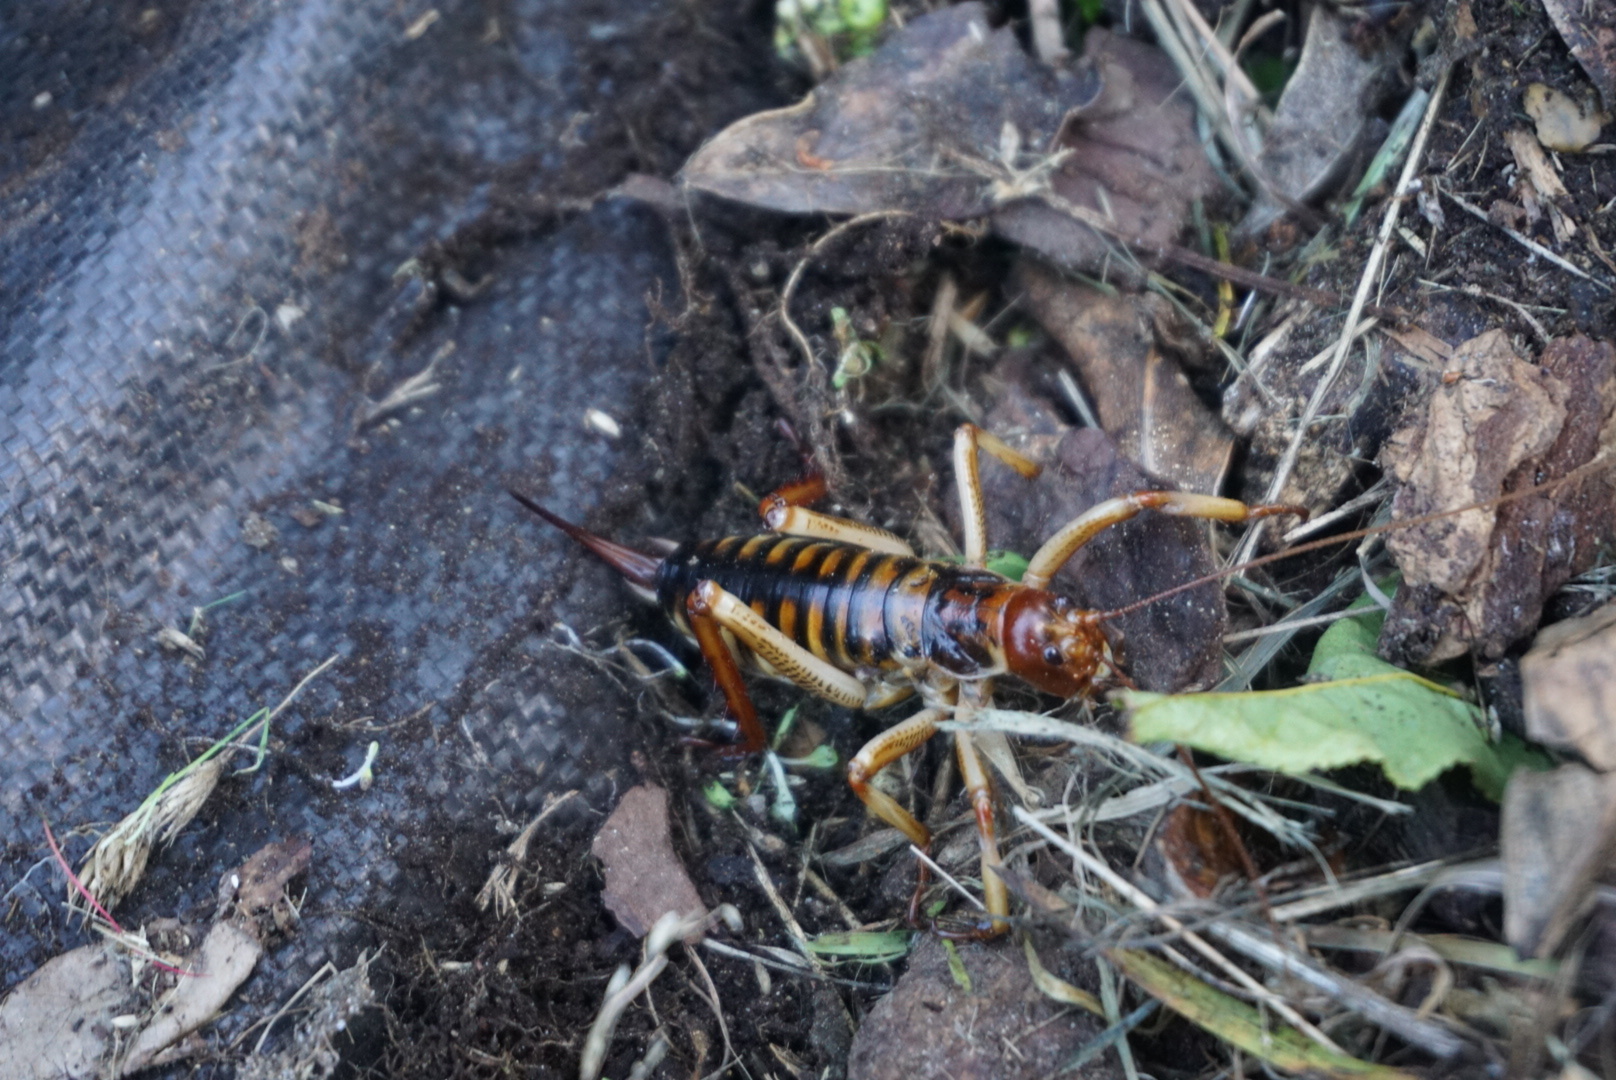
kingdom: Animalia
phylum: Arthropoda
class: Insecta
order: Orthoptera
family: Anostostomatidae
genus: Hemideina
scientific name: Hemideina crassidens
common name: Wellington tree weta
